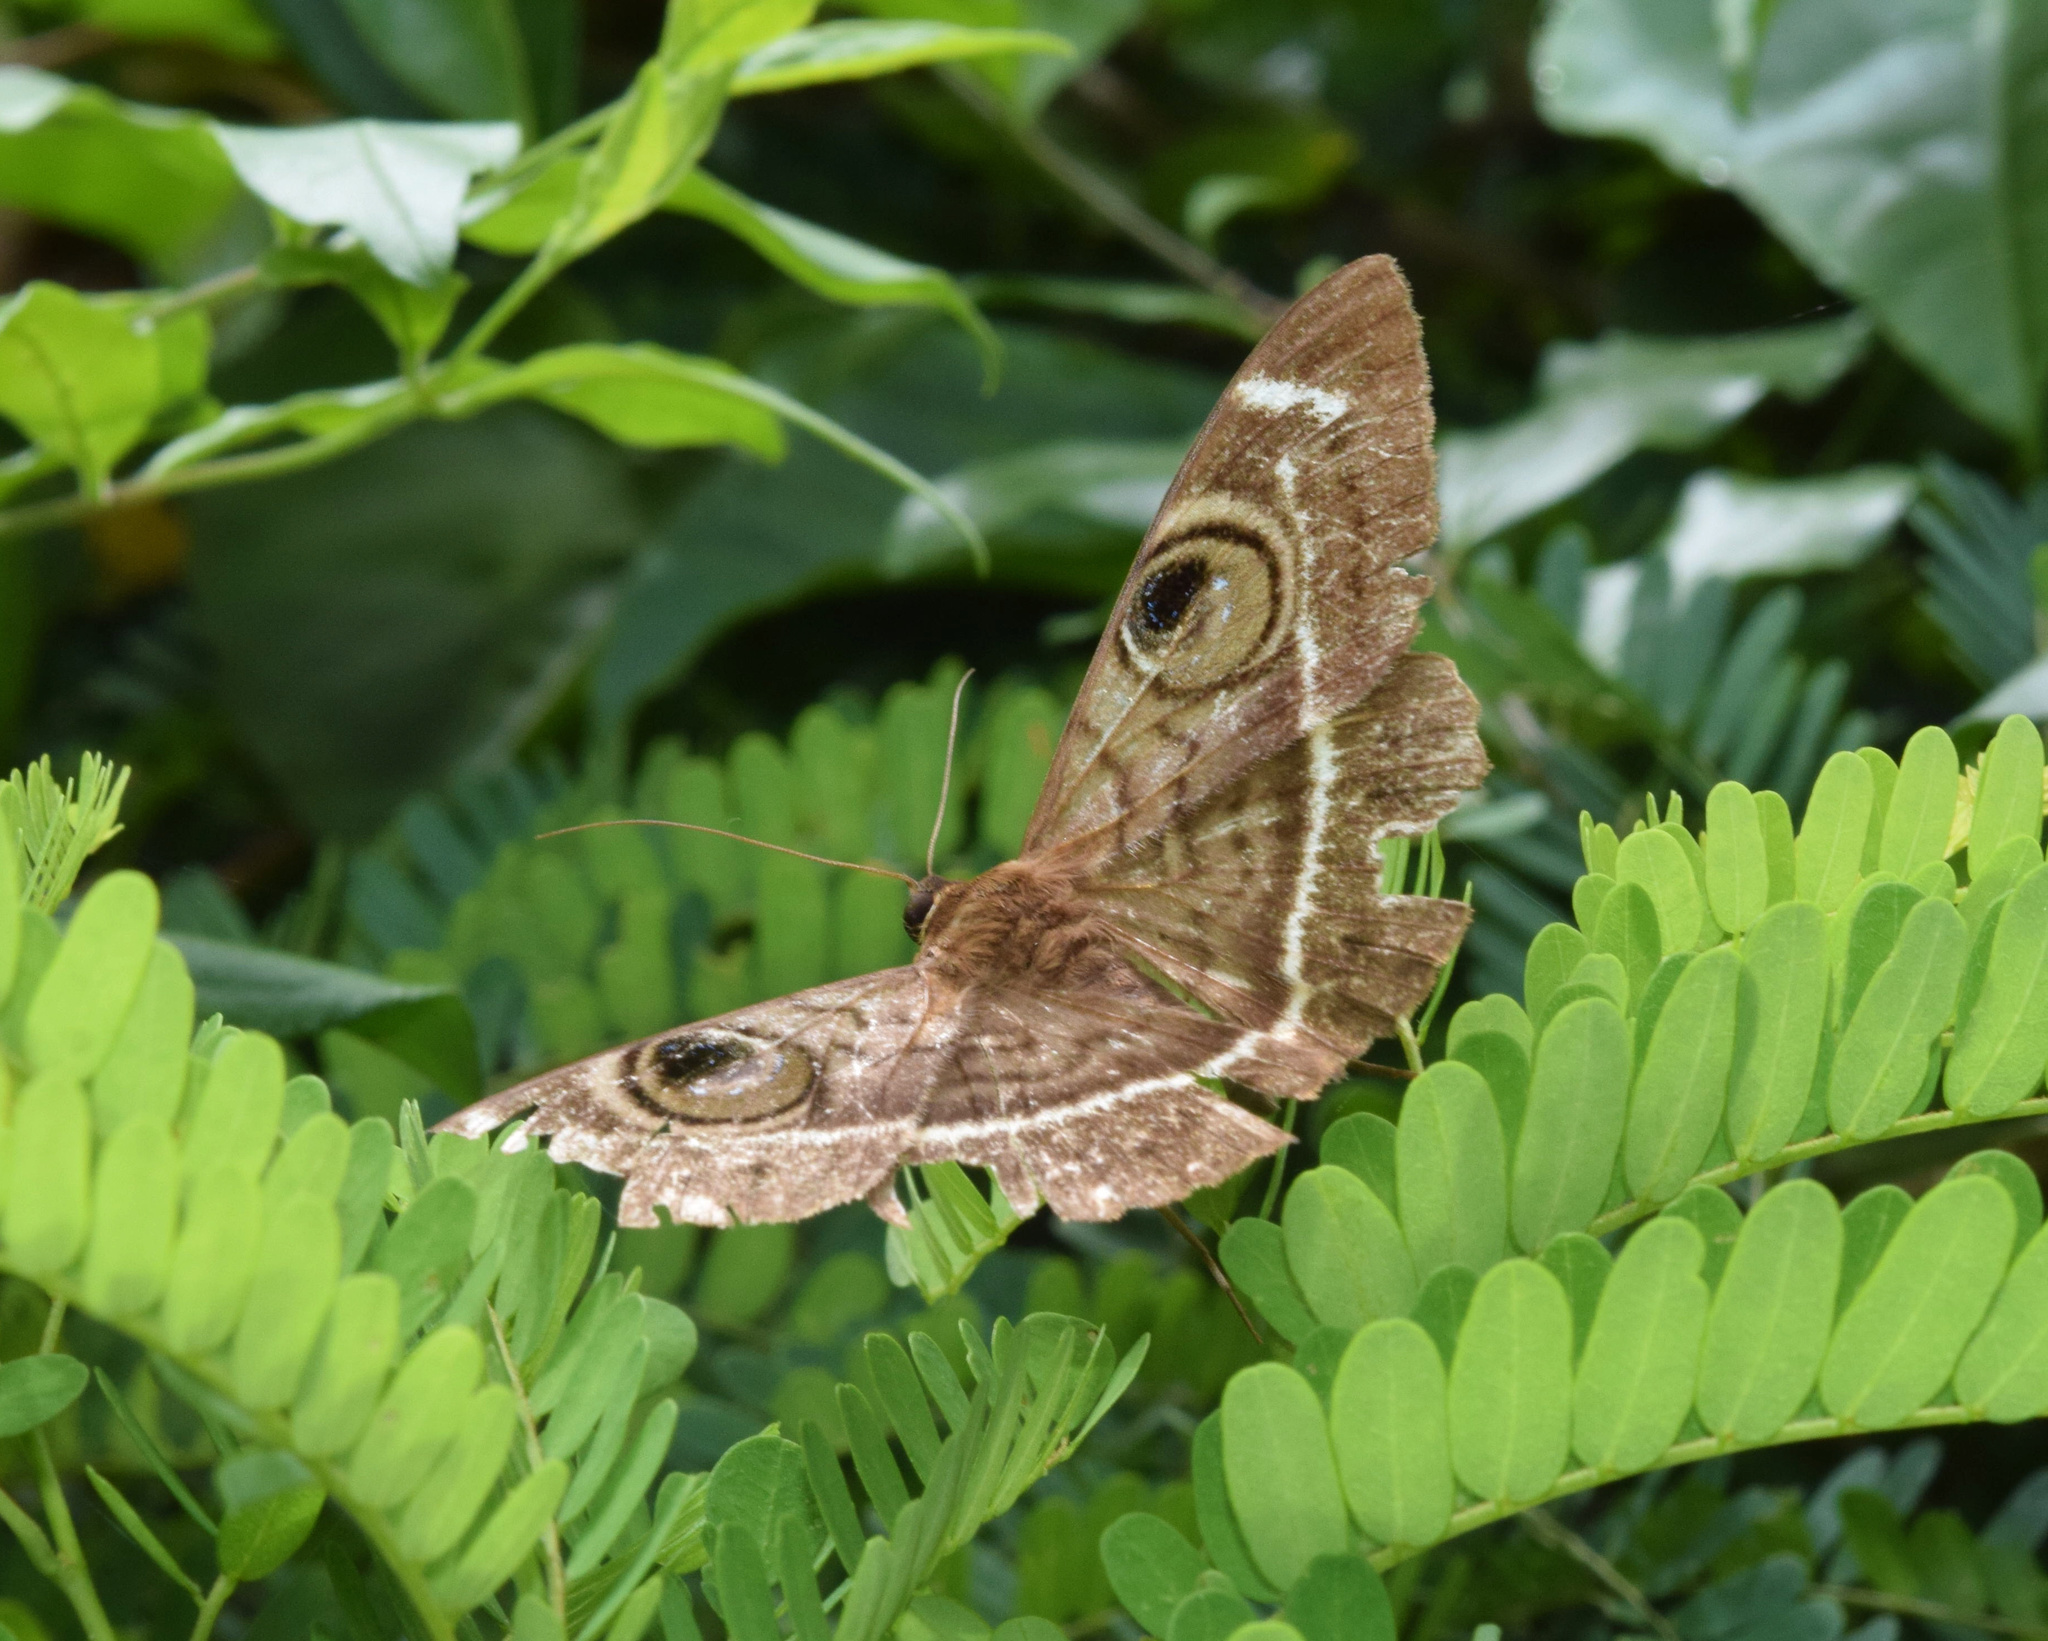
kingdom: Animalia
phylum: Arthropoda
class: Insecta
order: Lepidoptera
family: Erebidae
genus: Cyligramma
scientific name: Cyligramma latona
